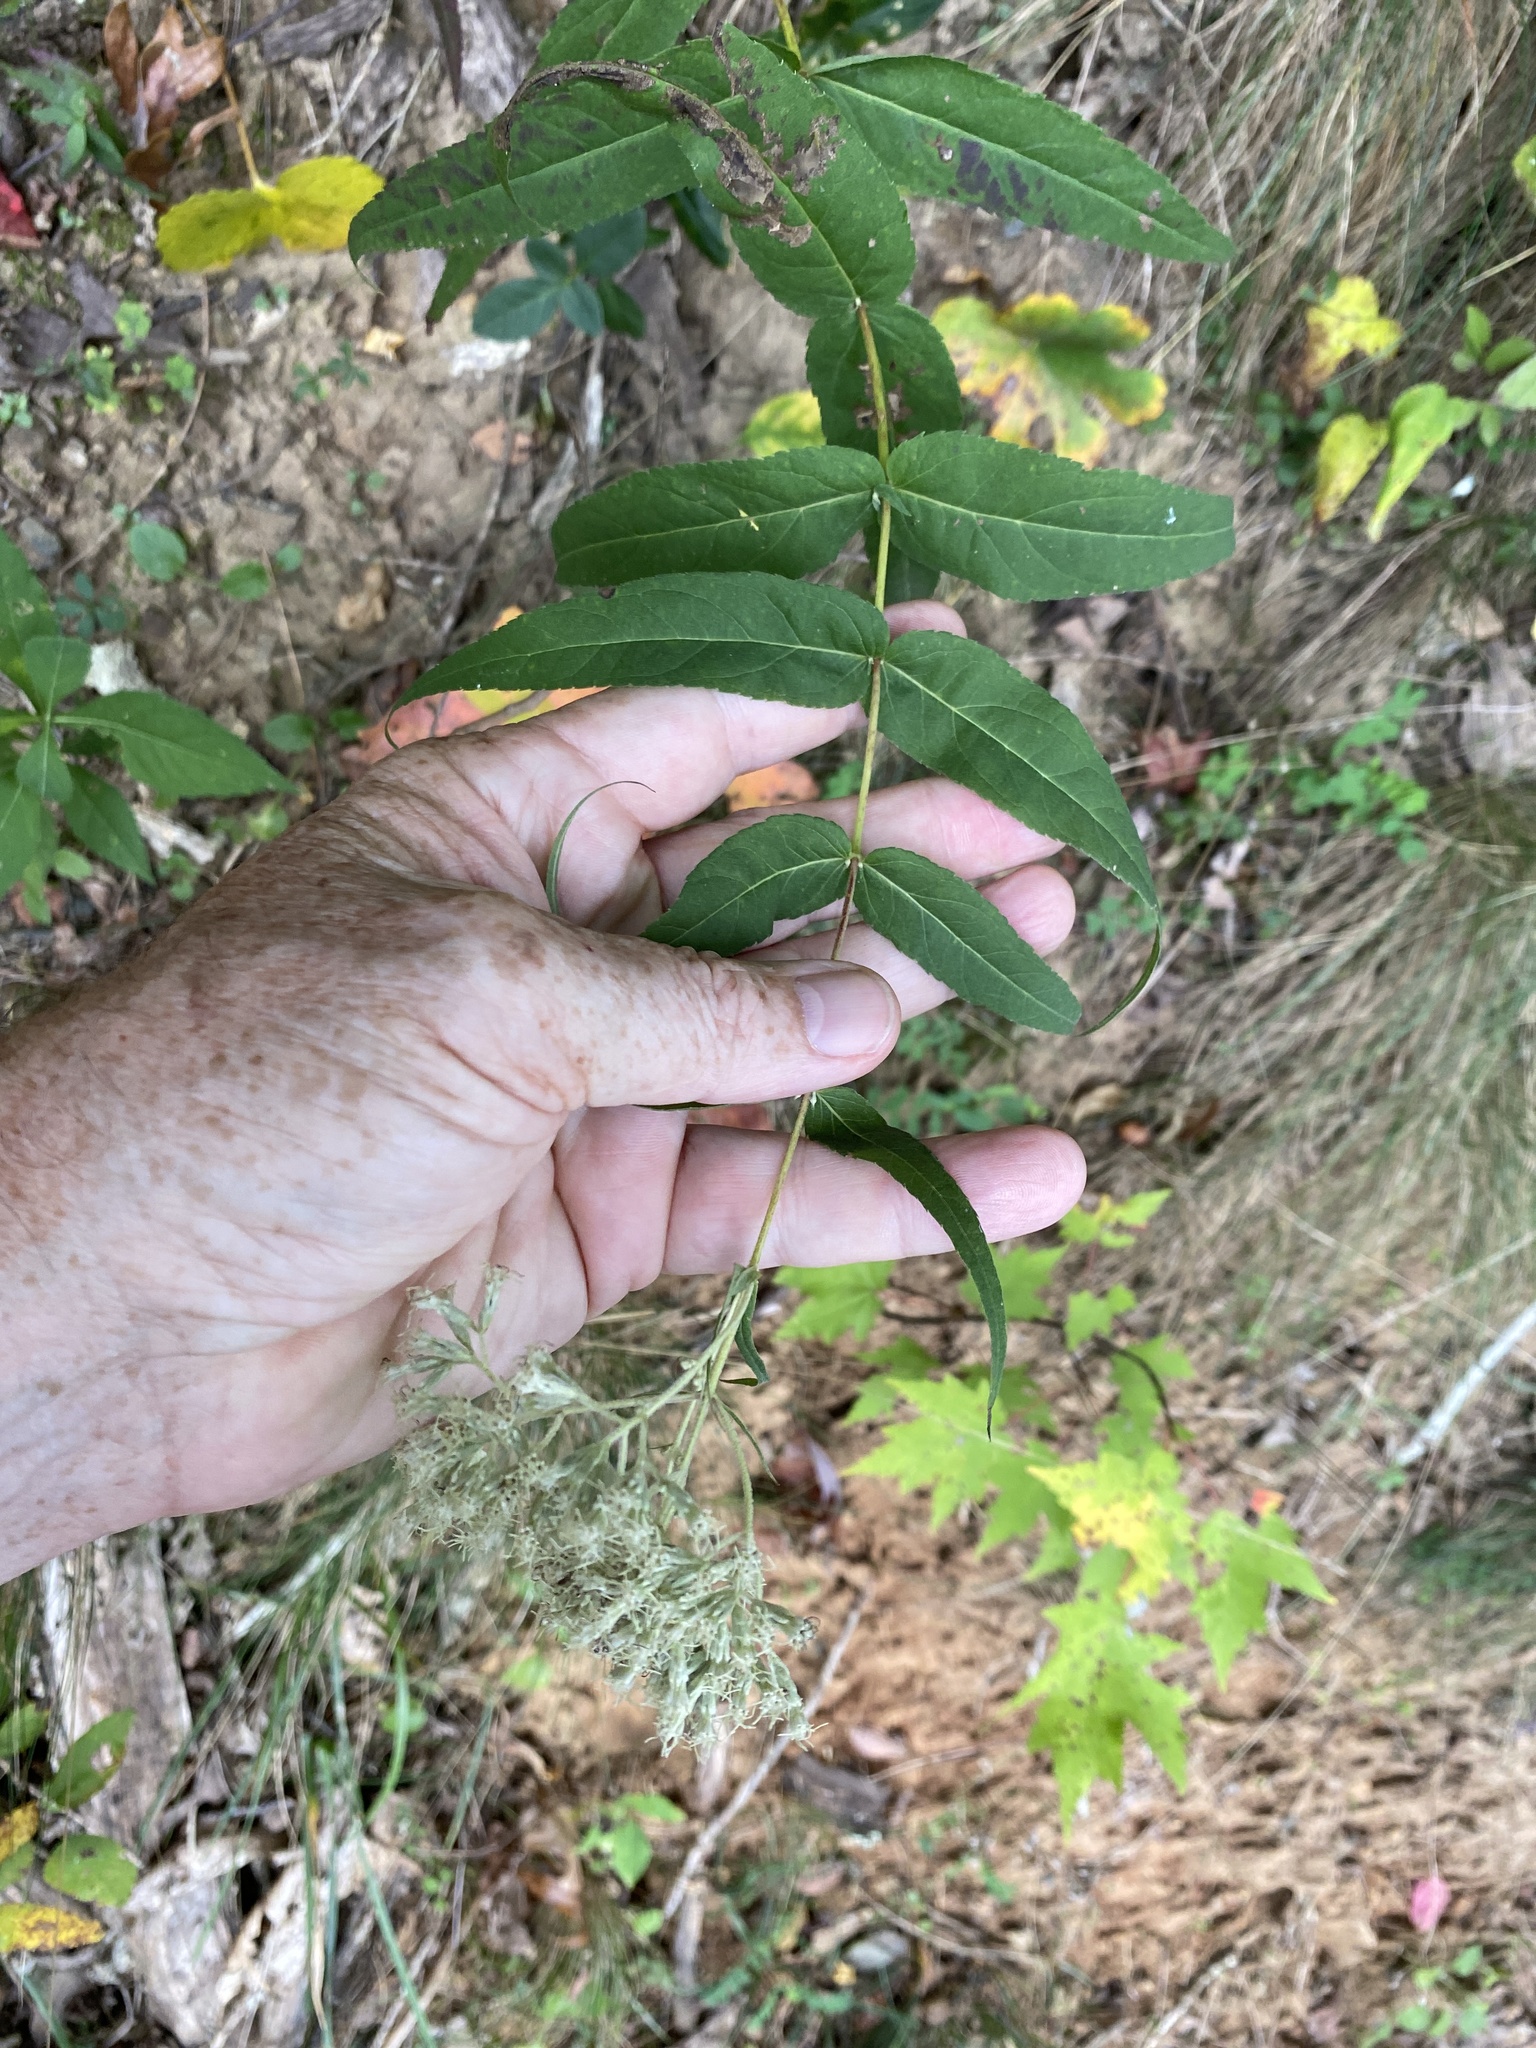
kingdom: Plantae
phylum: Tracheophyta
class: Magnoliopsida
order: Asterales
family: Asteraceae
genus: Eupatorium
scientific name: Eupatorium sessilifolium
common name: Upland boneset
